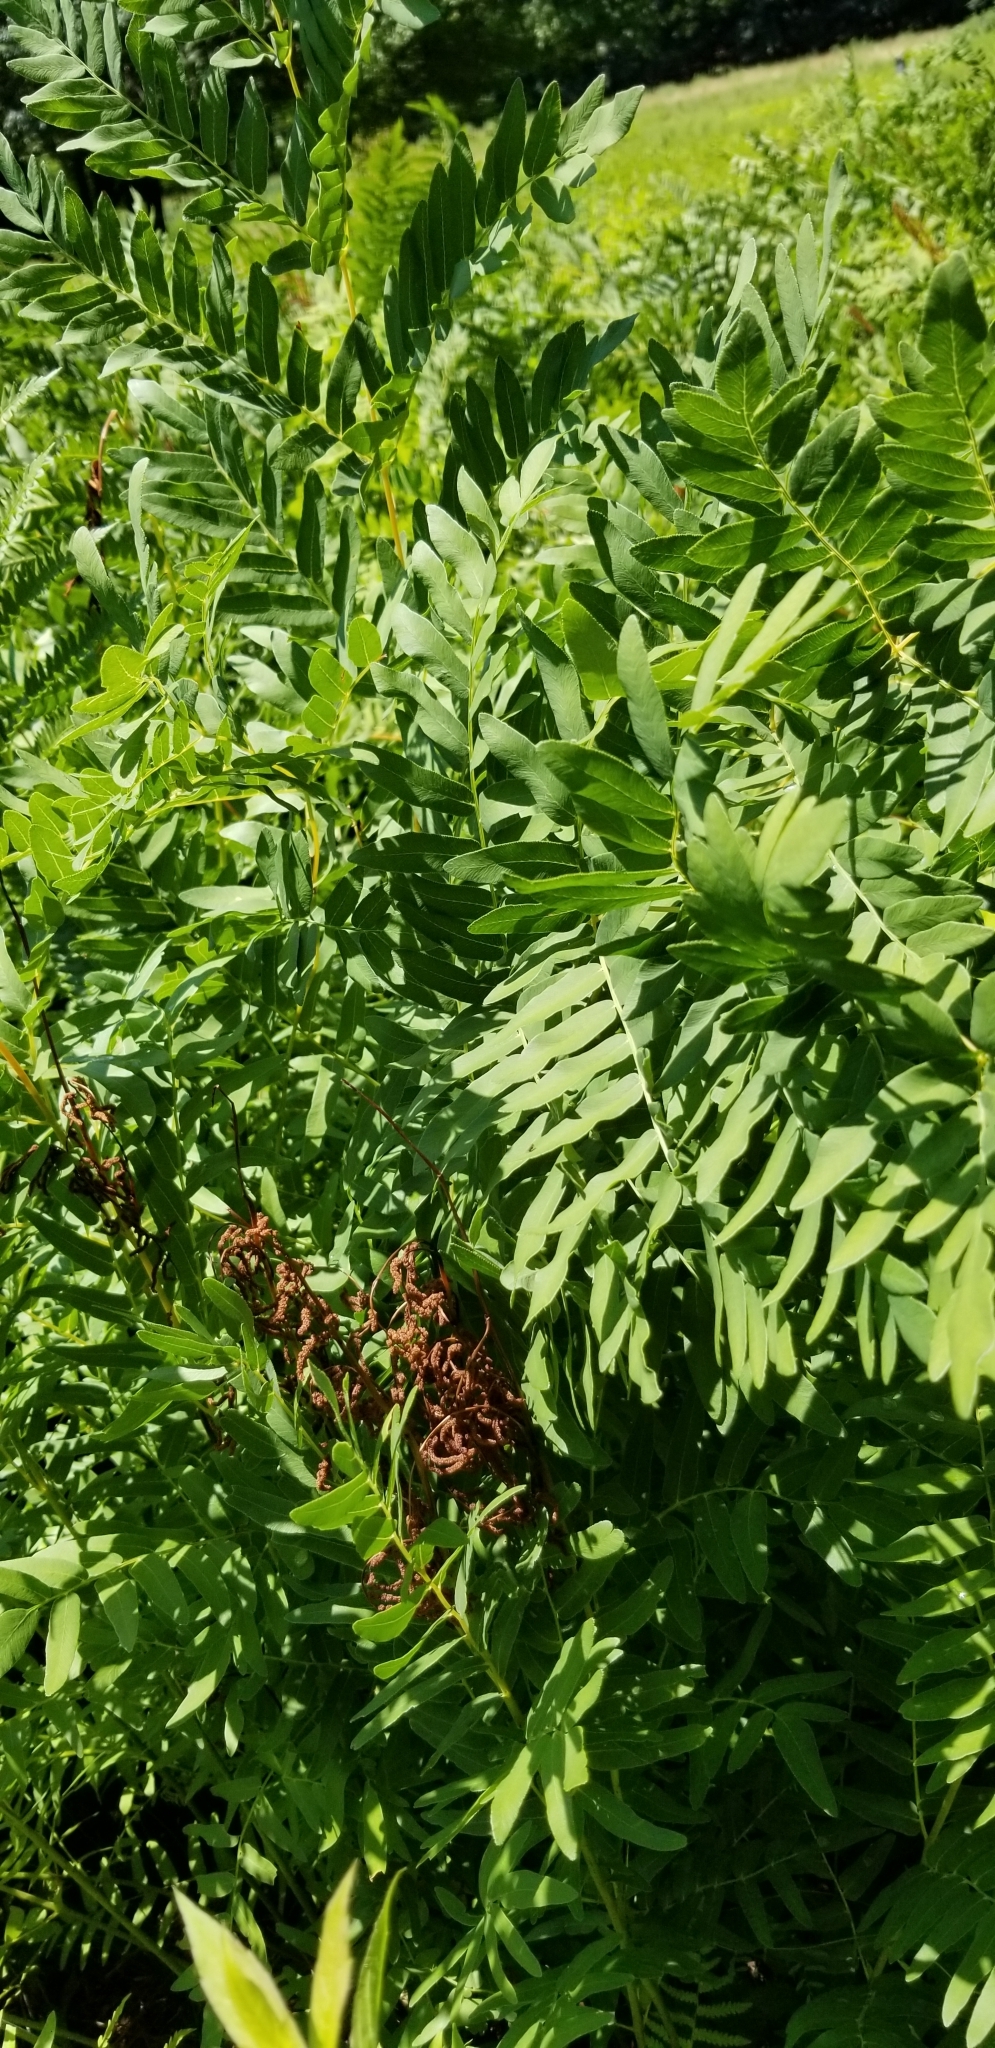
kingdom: Plantae
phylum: Tracheophyta
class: Polypodiopsida
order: Osmundales
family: Osmundaceae
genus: Osmunda
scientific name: Osmunda spectabilis
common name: American royal fern
